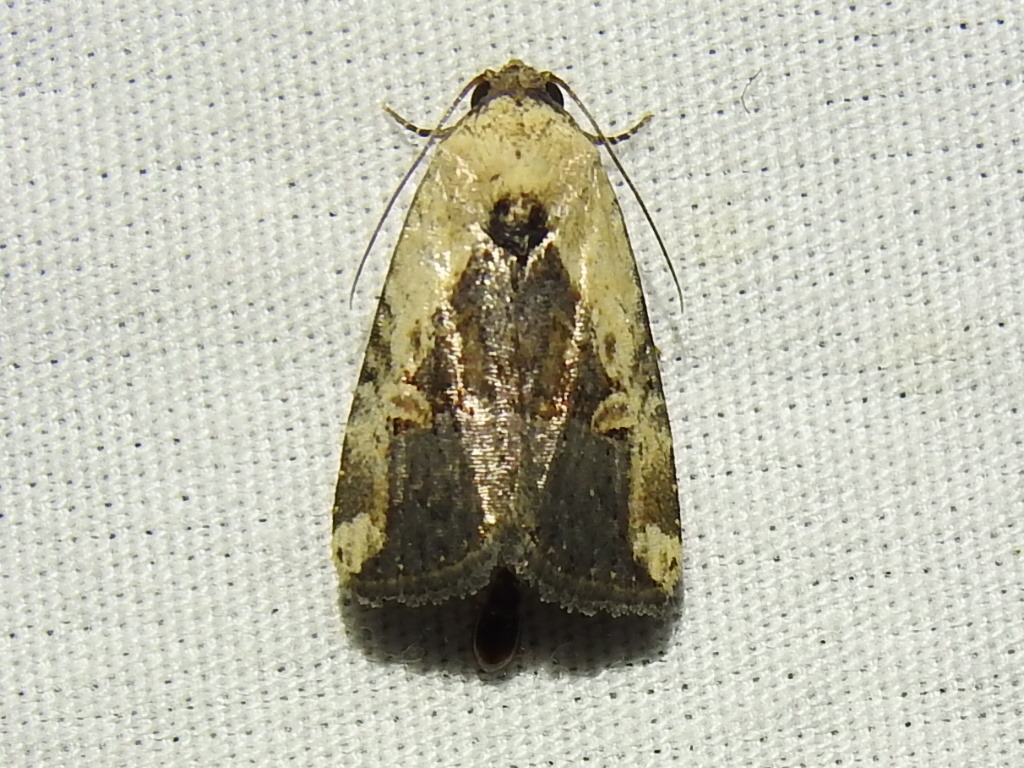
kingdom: Animalia
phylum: Arthropoda
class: Insecta
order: Lepidoptera
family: Noctuidae
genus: Elaphria
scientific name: Elaphria agrotina
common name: Agrotina midget
